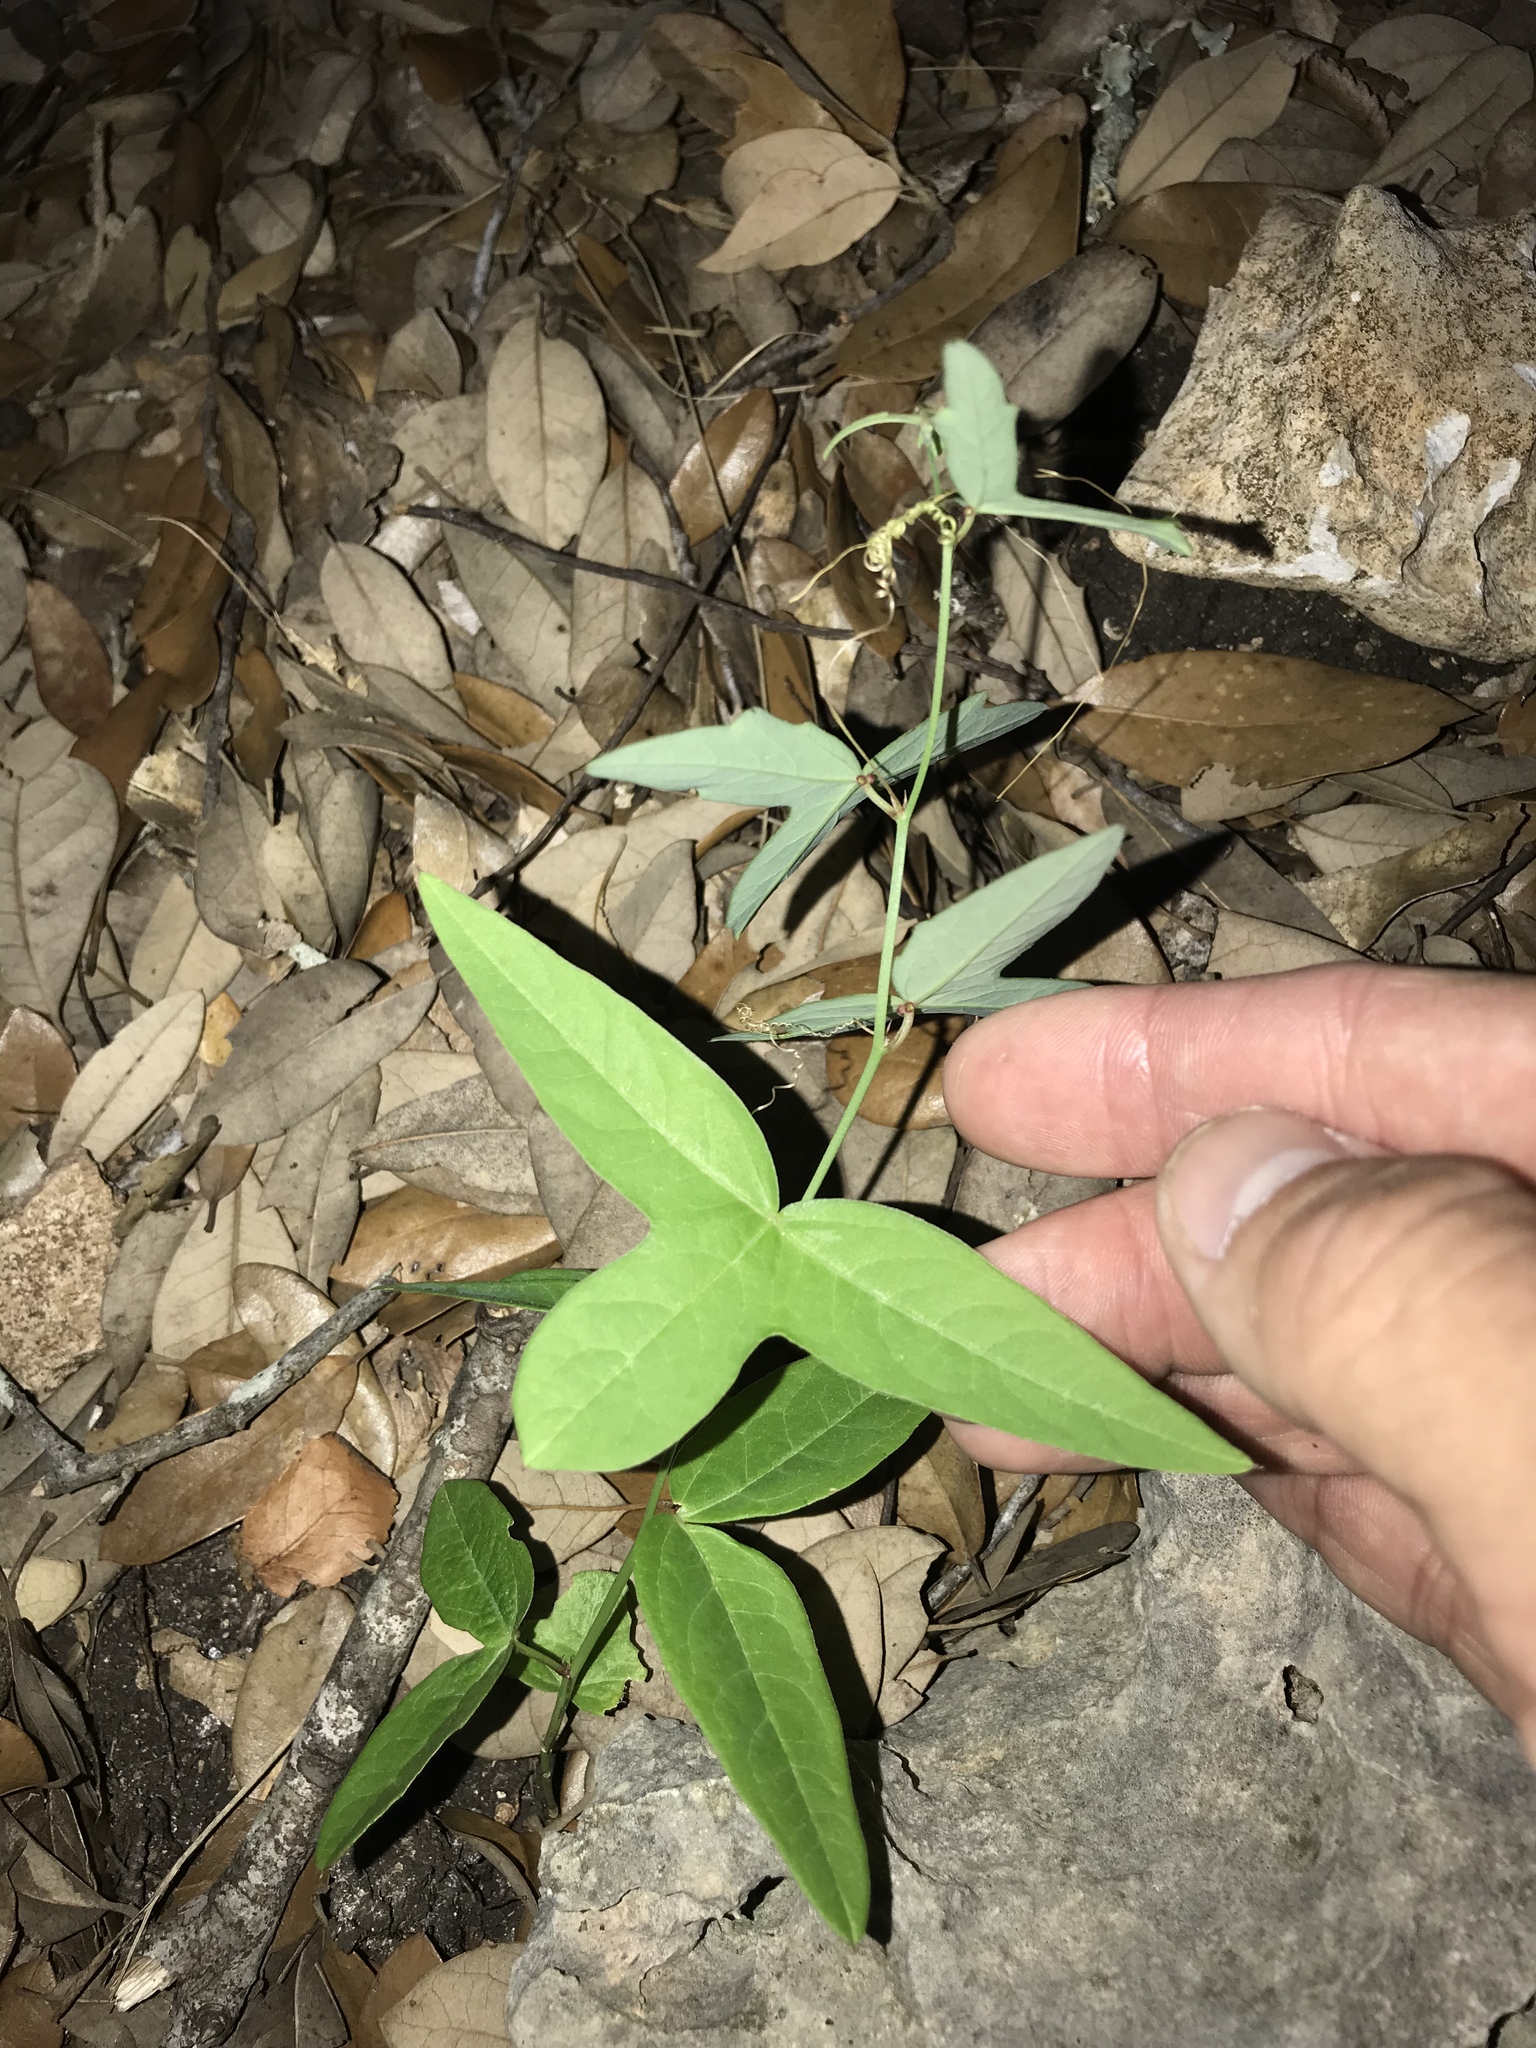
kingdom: Plantae
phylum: Tracheophyta
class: Magnoliopsida
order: Malpighiales
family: Passifloraceae
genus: Passiflora
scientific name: Passiflora tenuiloba
